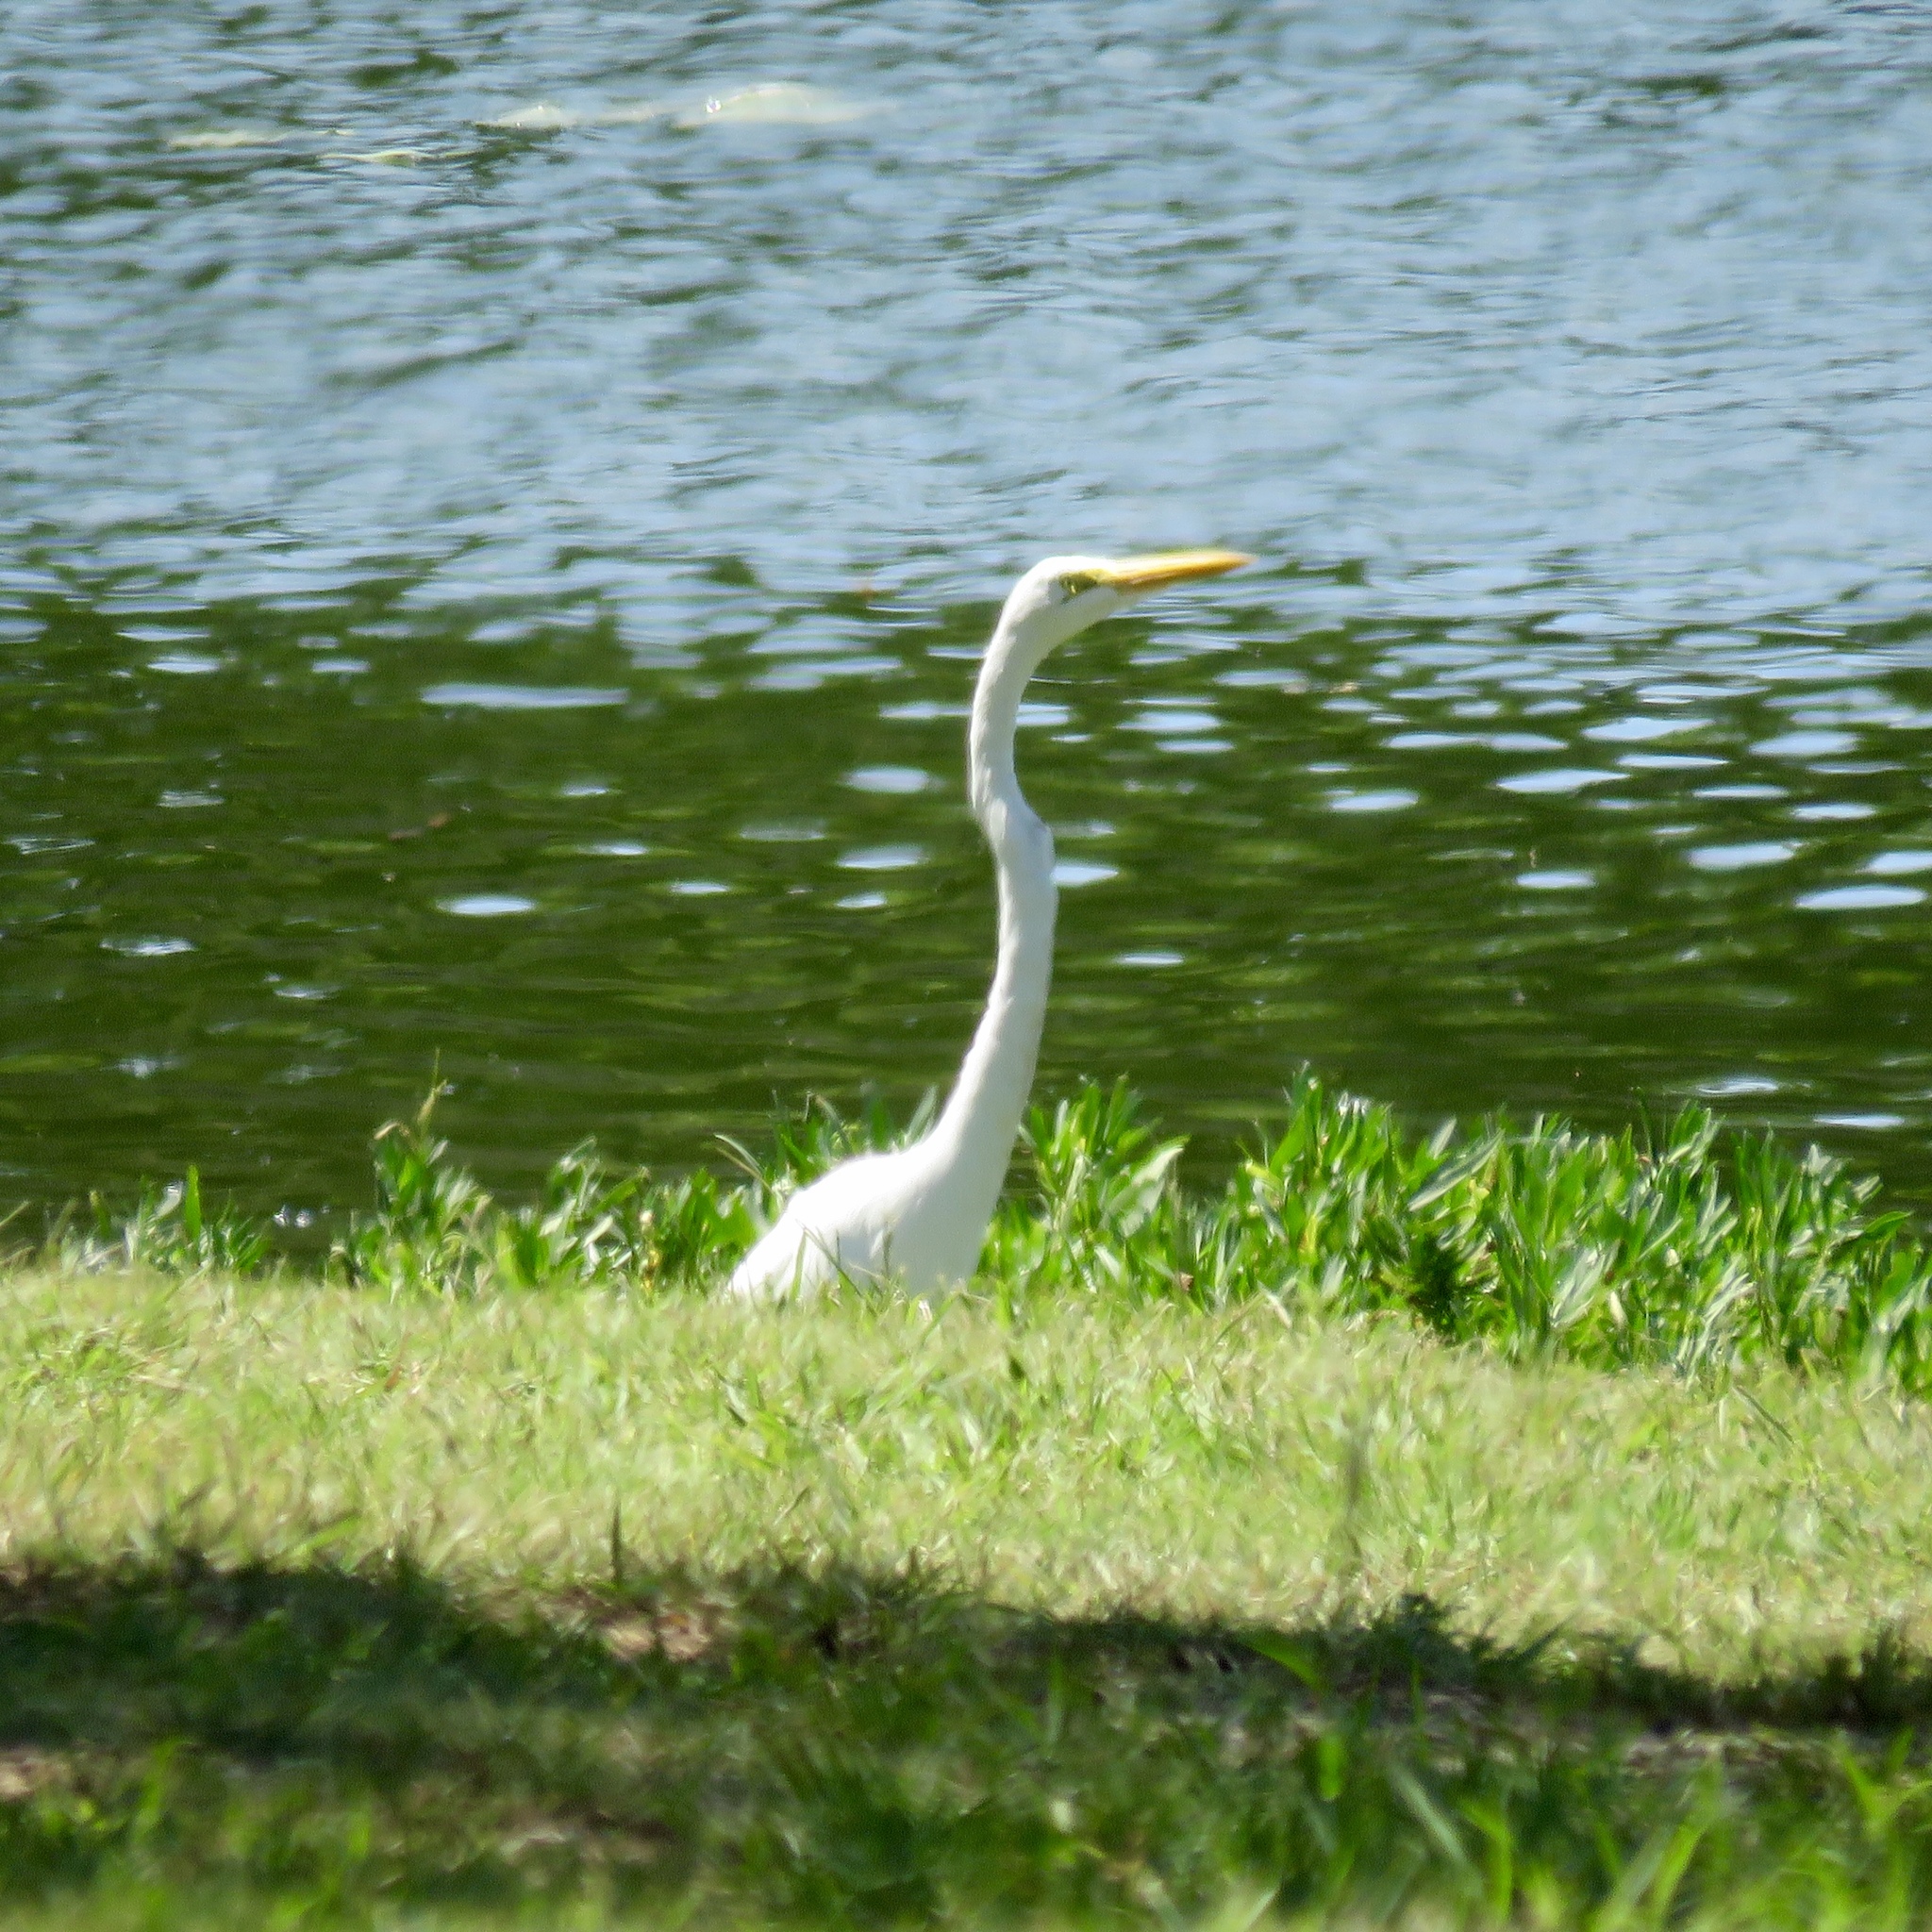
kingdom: Animalia
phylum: Chordata
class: Aves
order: Pelecaniformes
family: Ardeidae
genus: Ardea
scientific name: Ardea alba
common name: Great egret
